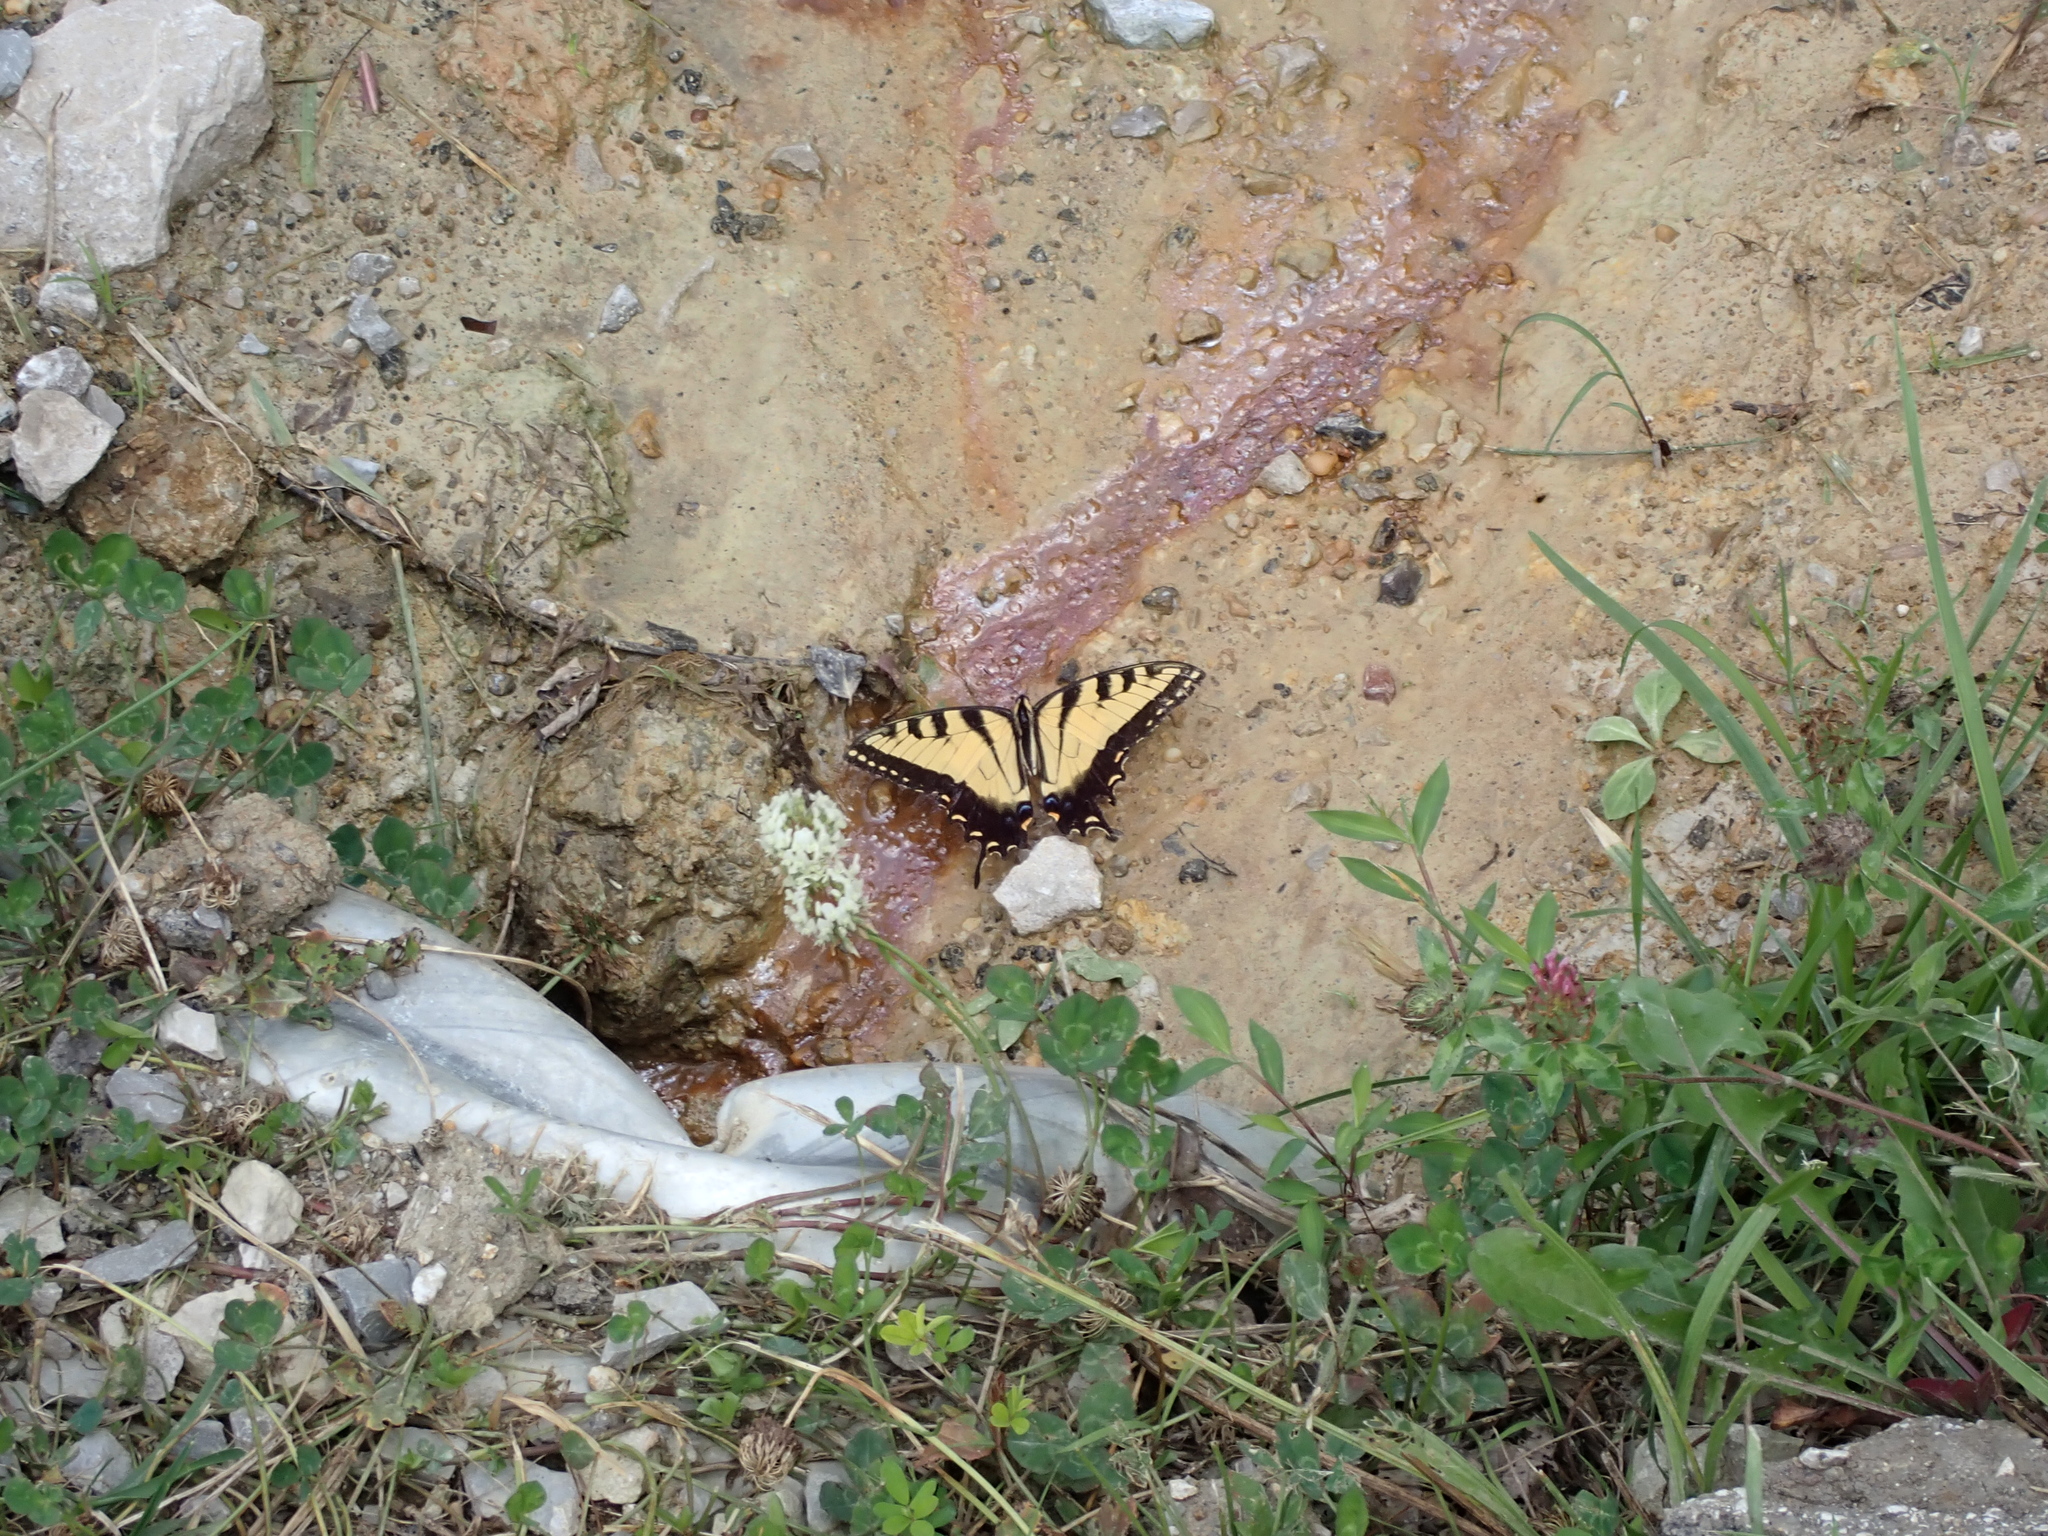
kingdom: Animalia
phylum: Arthropoda
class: Insecta
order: Lepidoptera
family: Papilionidae
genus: Papilio
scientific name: Papilio glaucus
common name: Tiger swallowtail
